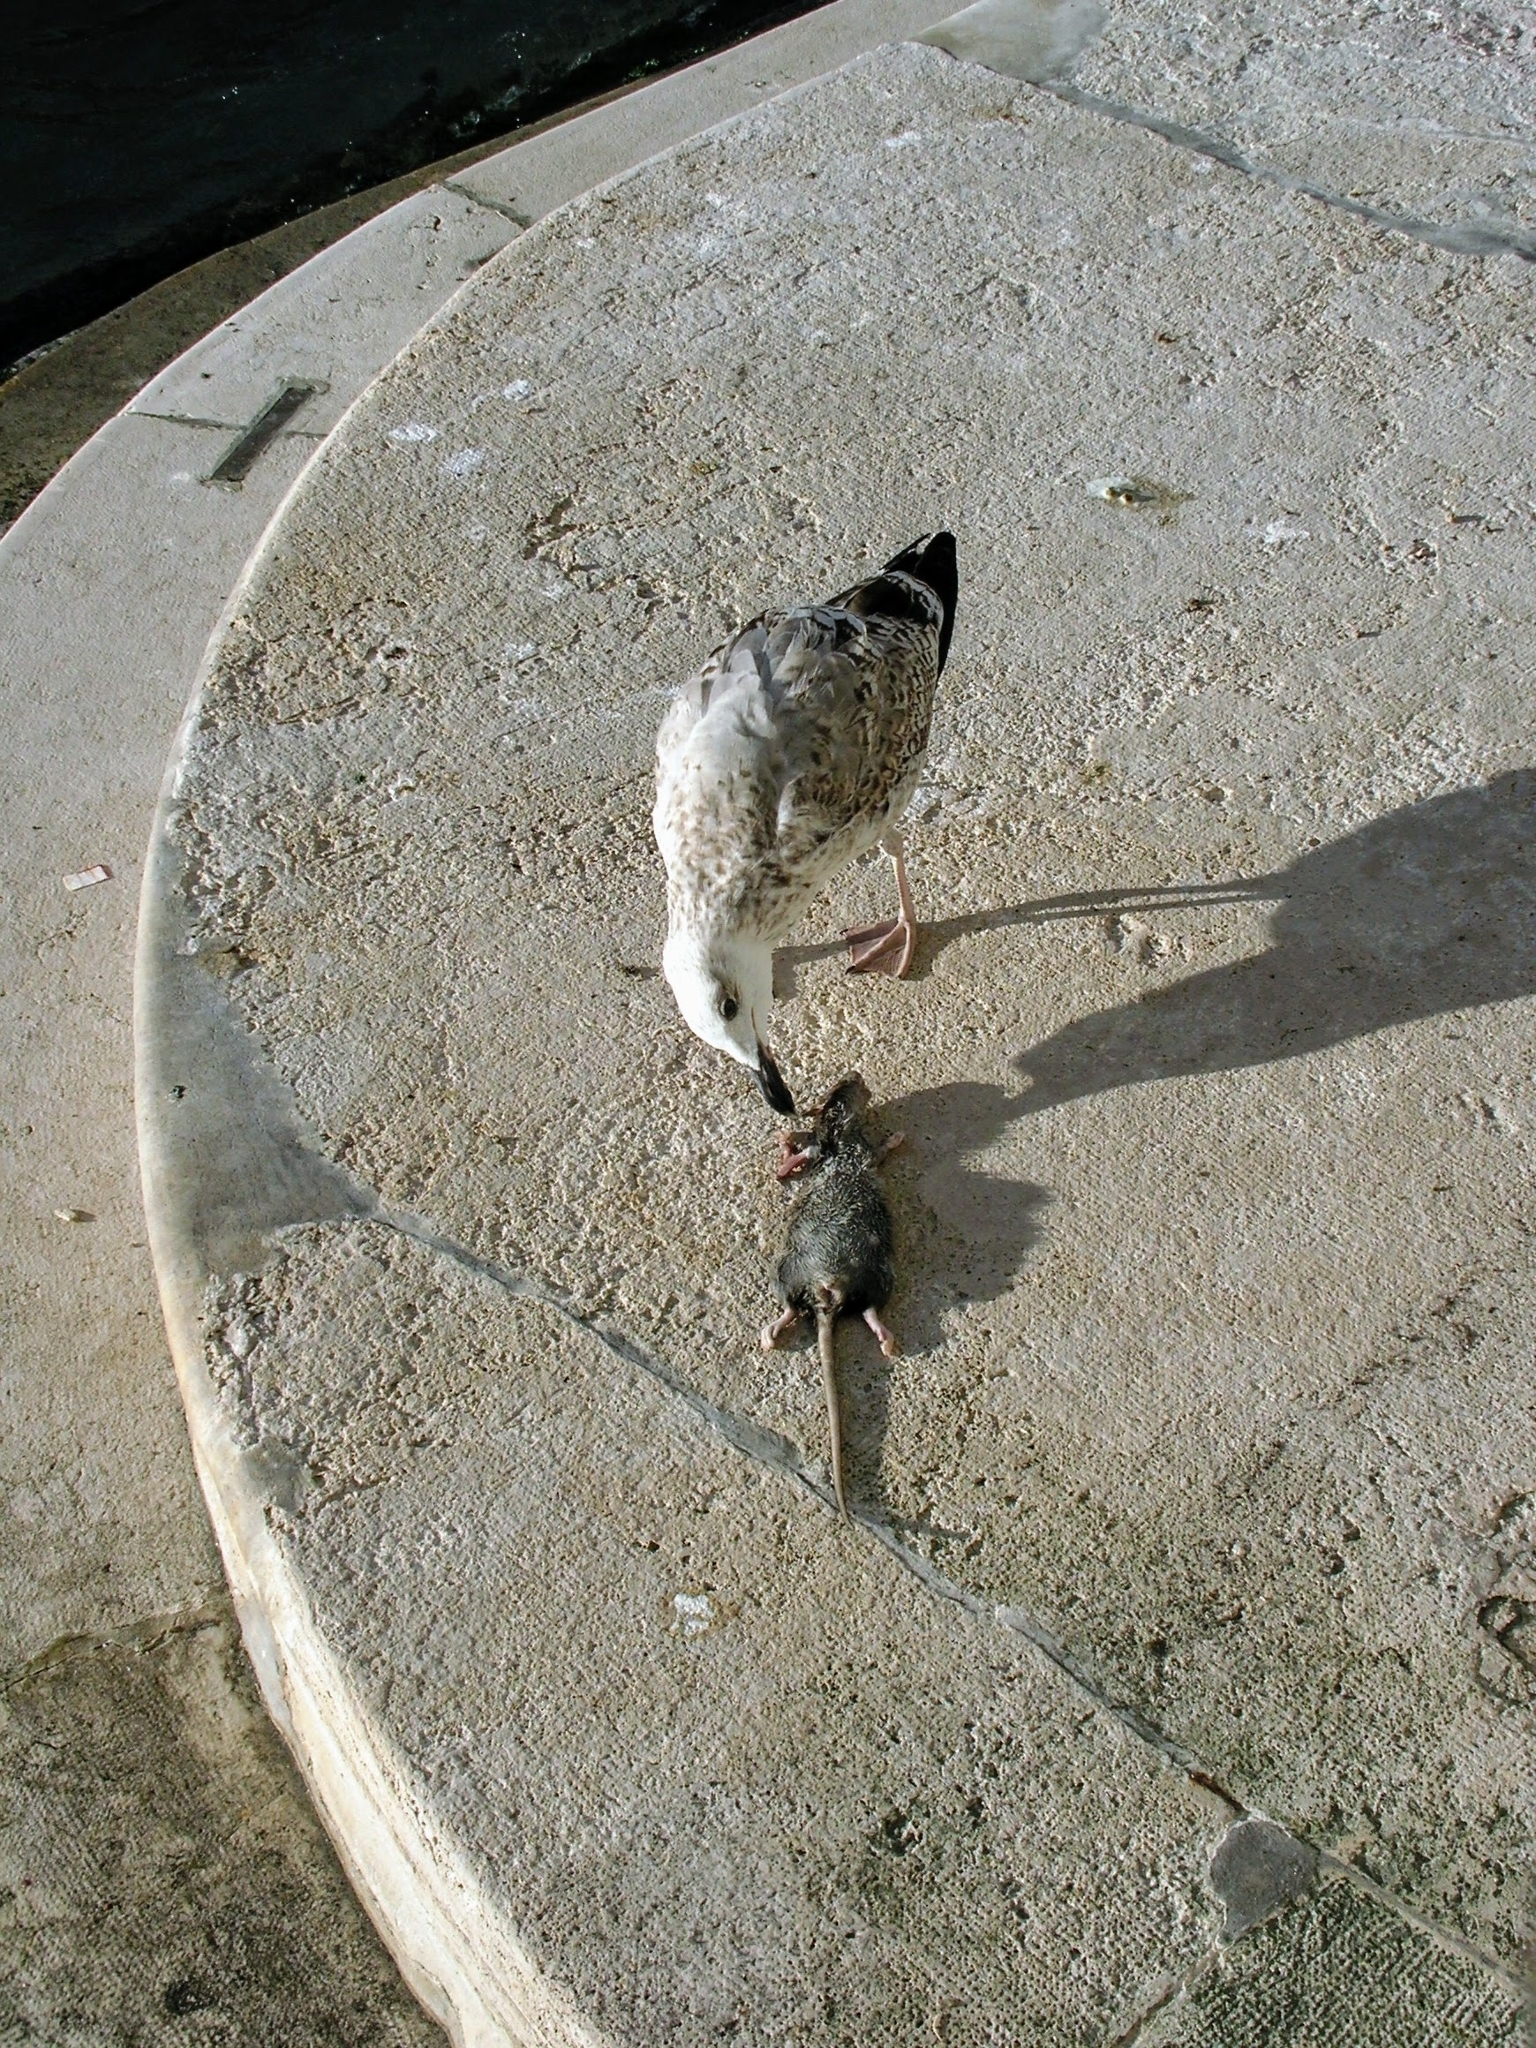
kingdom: Animalia
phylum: Chordata
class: Aves
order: Charadriiformes
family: Laridae
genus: Larus
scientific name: Larus michahellis
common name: Yellow-legged gull
